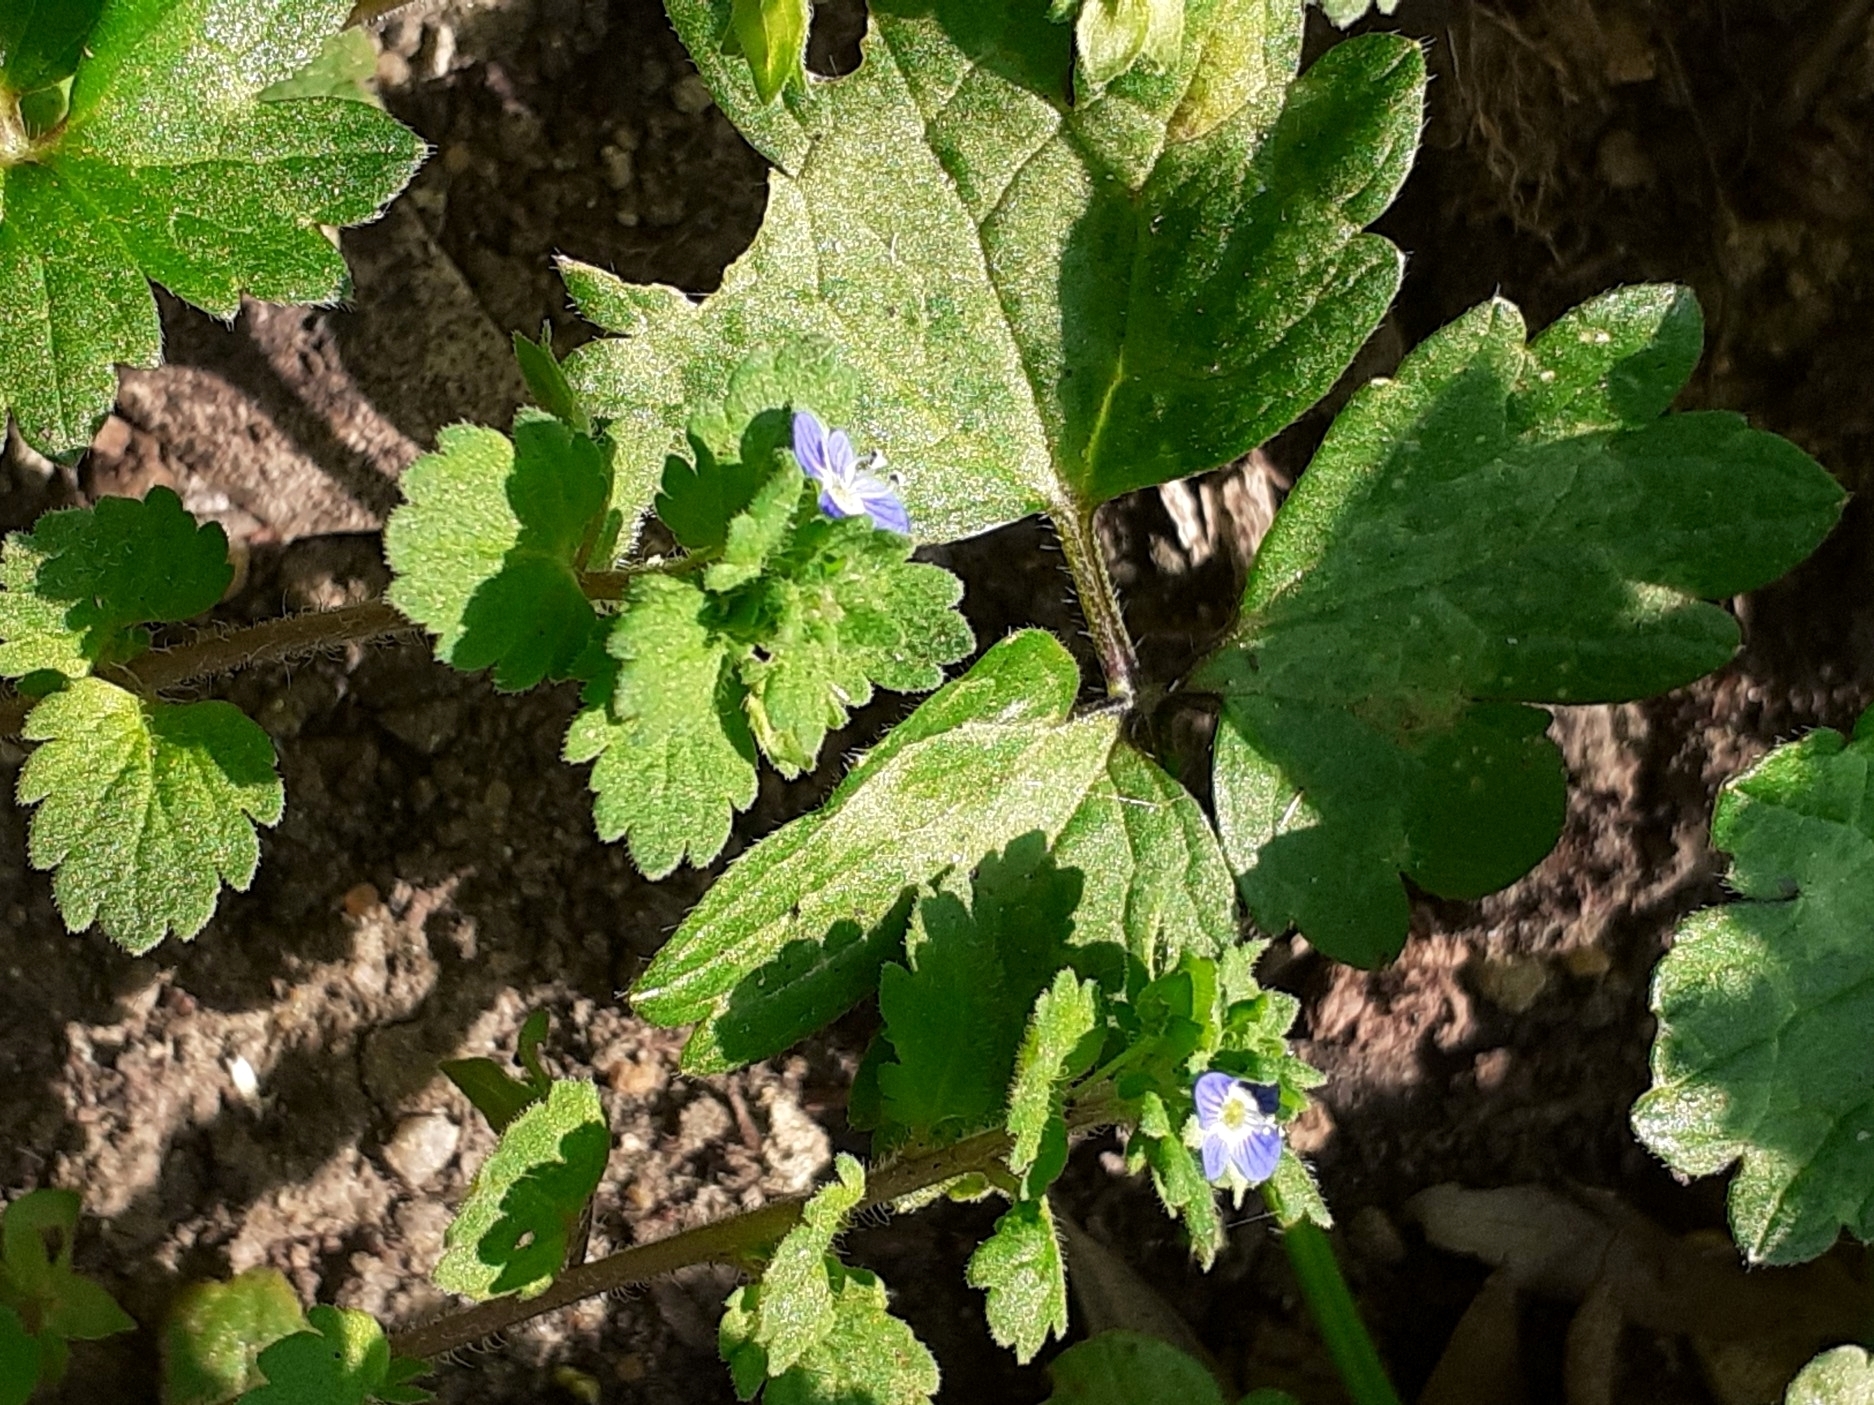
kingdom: Plantae
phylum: Tracheophyta
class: Magnoliopsida
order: Lamiales
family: Plantaginaceae
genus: Veronica
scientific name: Veronica persica
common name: Common field-speedwell
